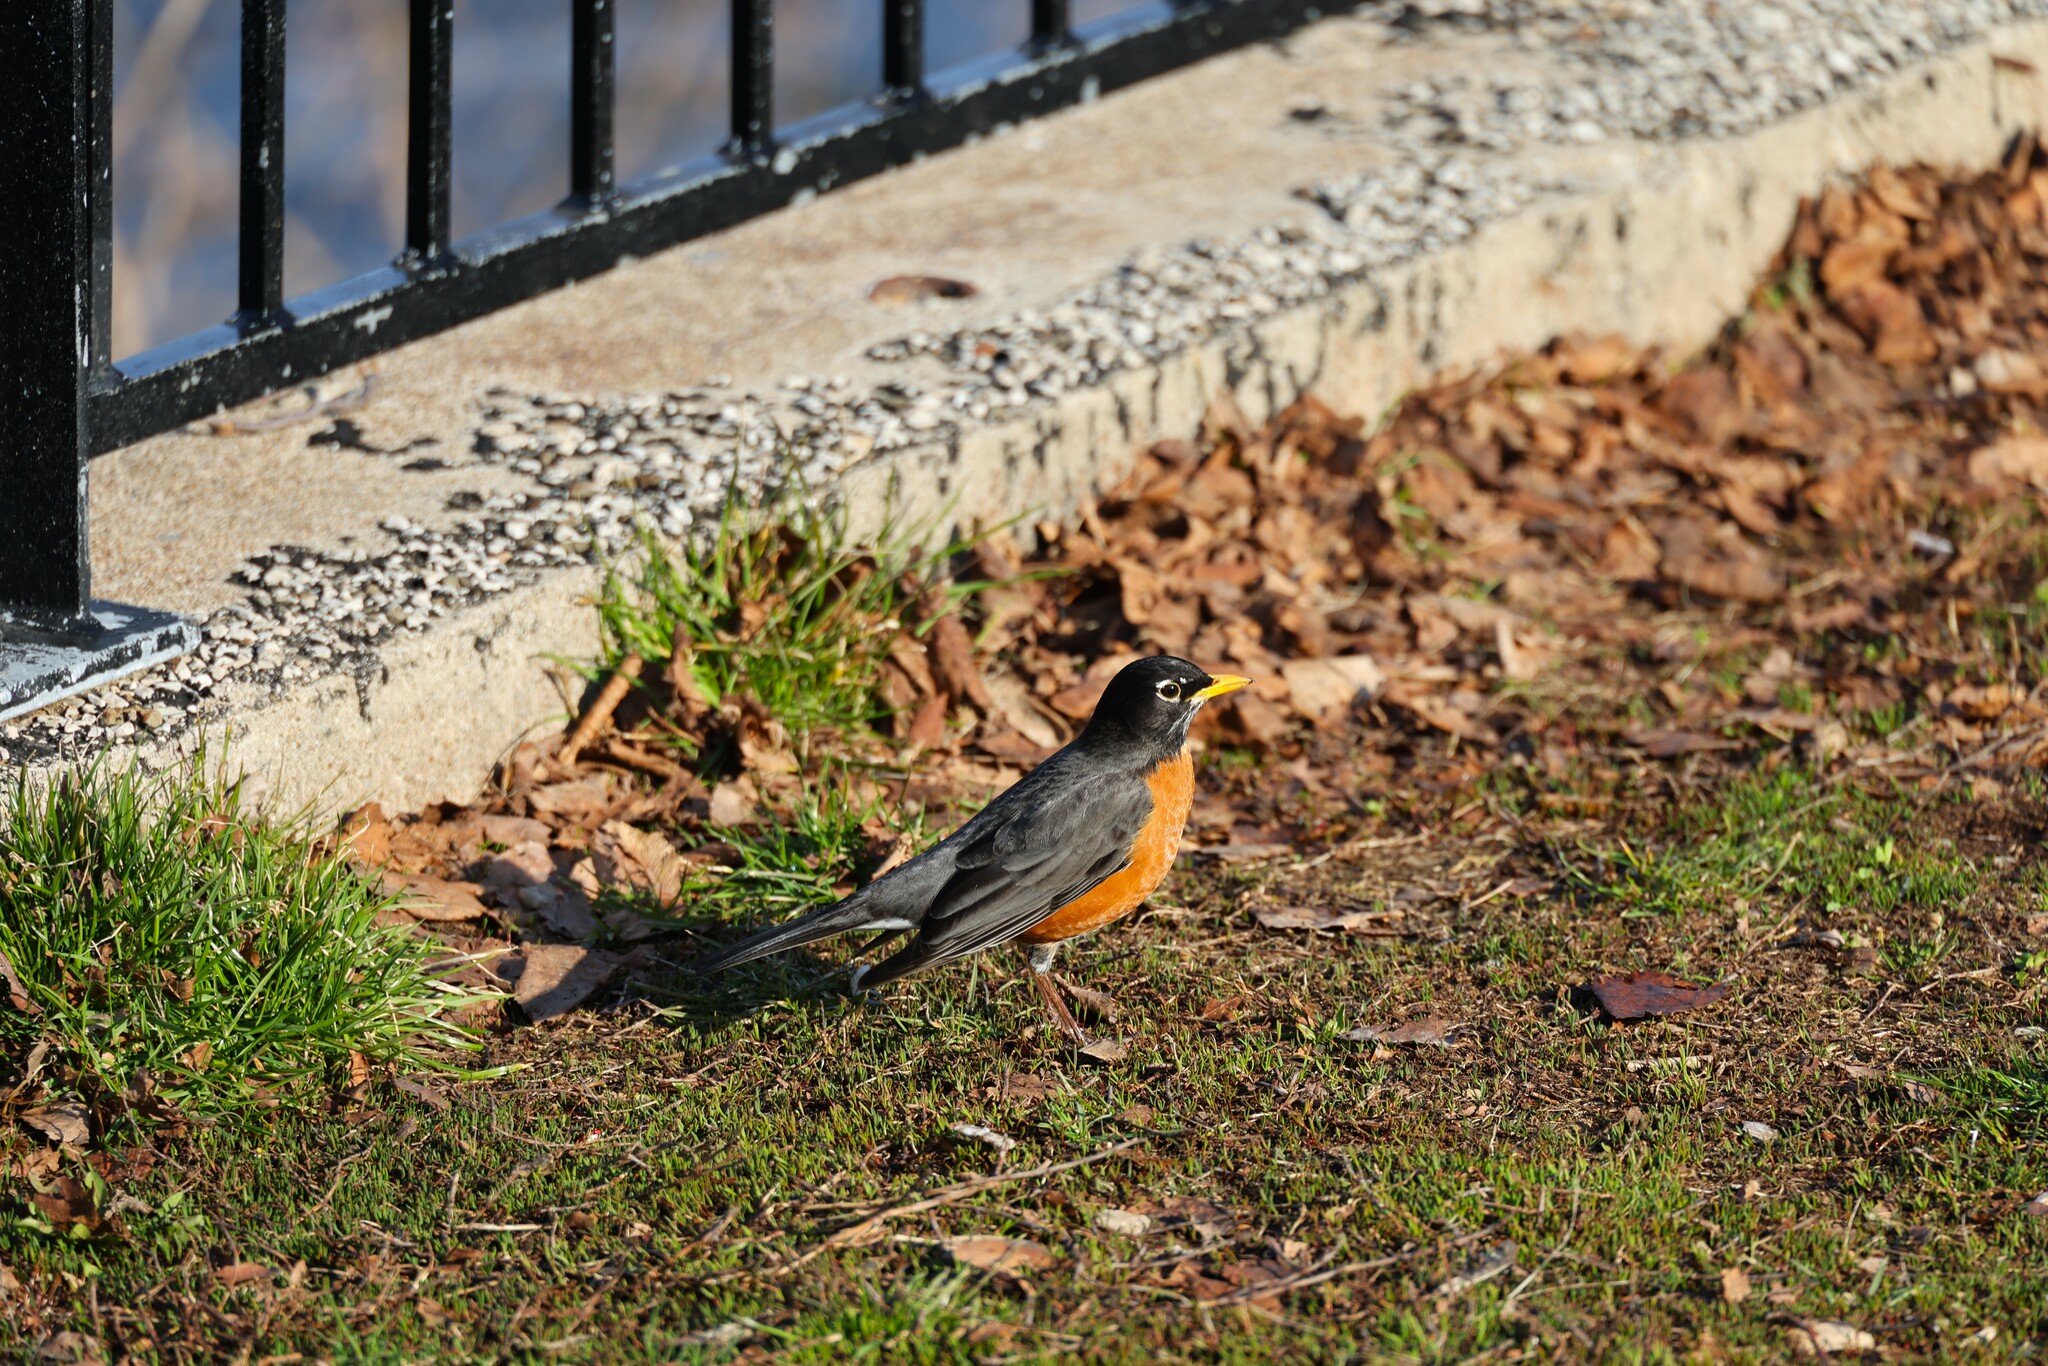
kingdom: Animalia
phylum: Chordata
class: Aves
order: Passeriformes
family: Turdidae
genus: Turdus
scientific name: Turdus migratorius
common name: American robin
